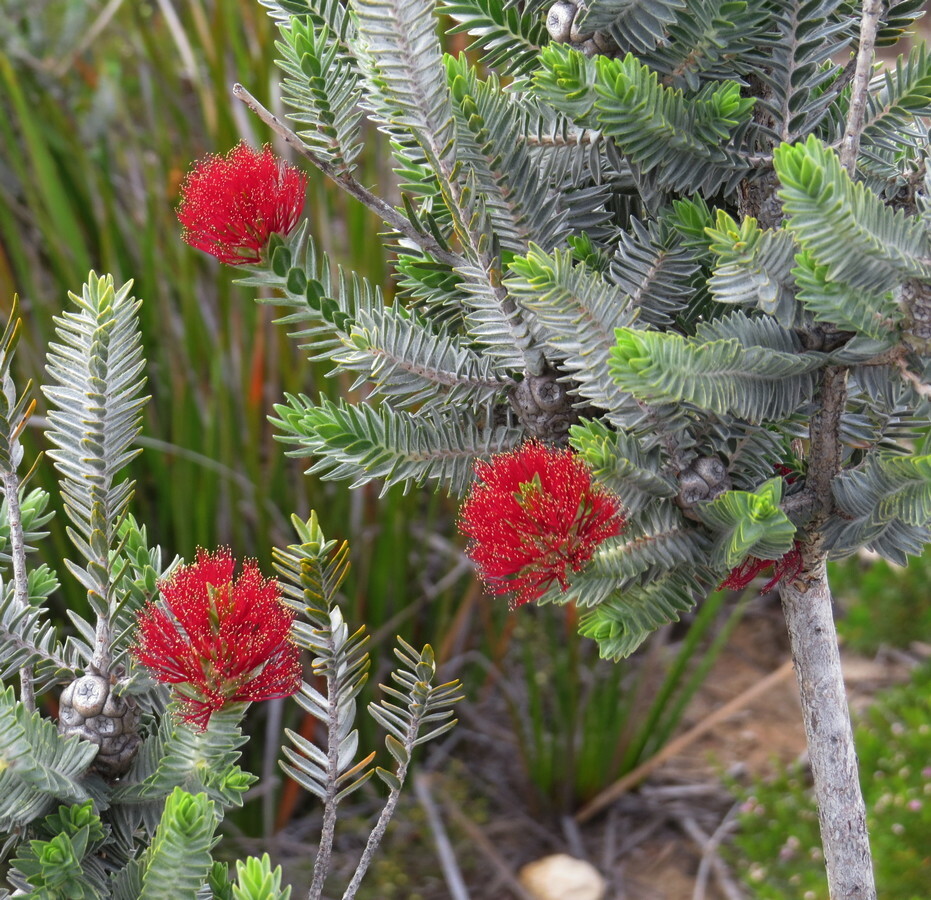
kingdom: Plantae
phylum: Tracheophyta
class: Magnoliopsida
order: Myrtales
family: Myrtaceae
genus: Melaleuca
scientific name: Melaleuca velutina
